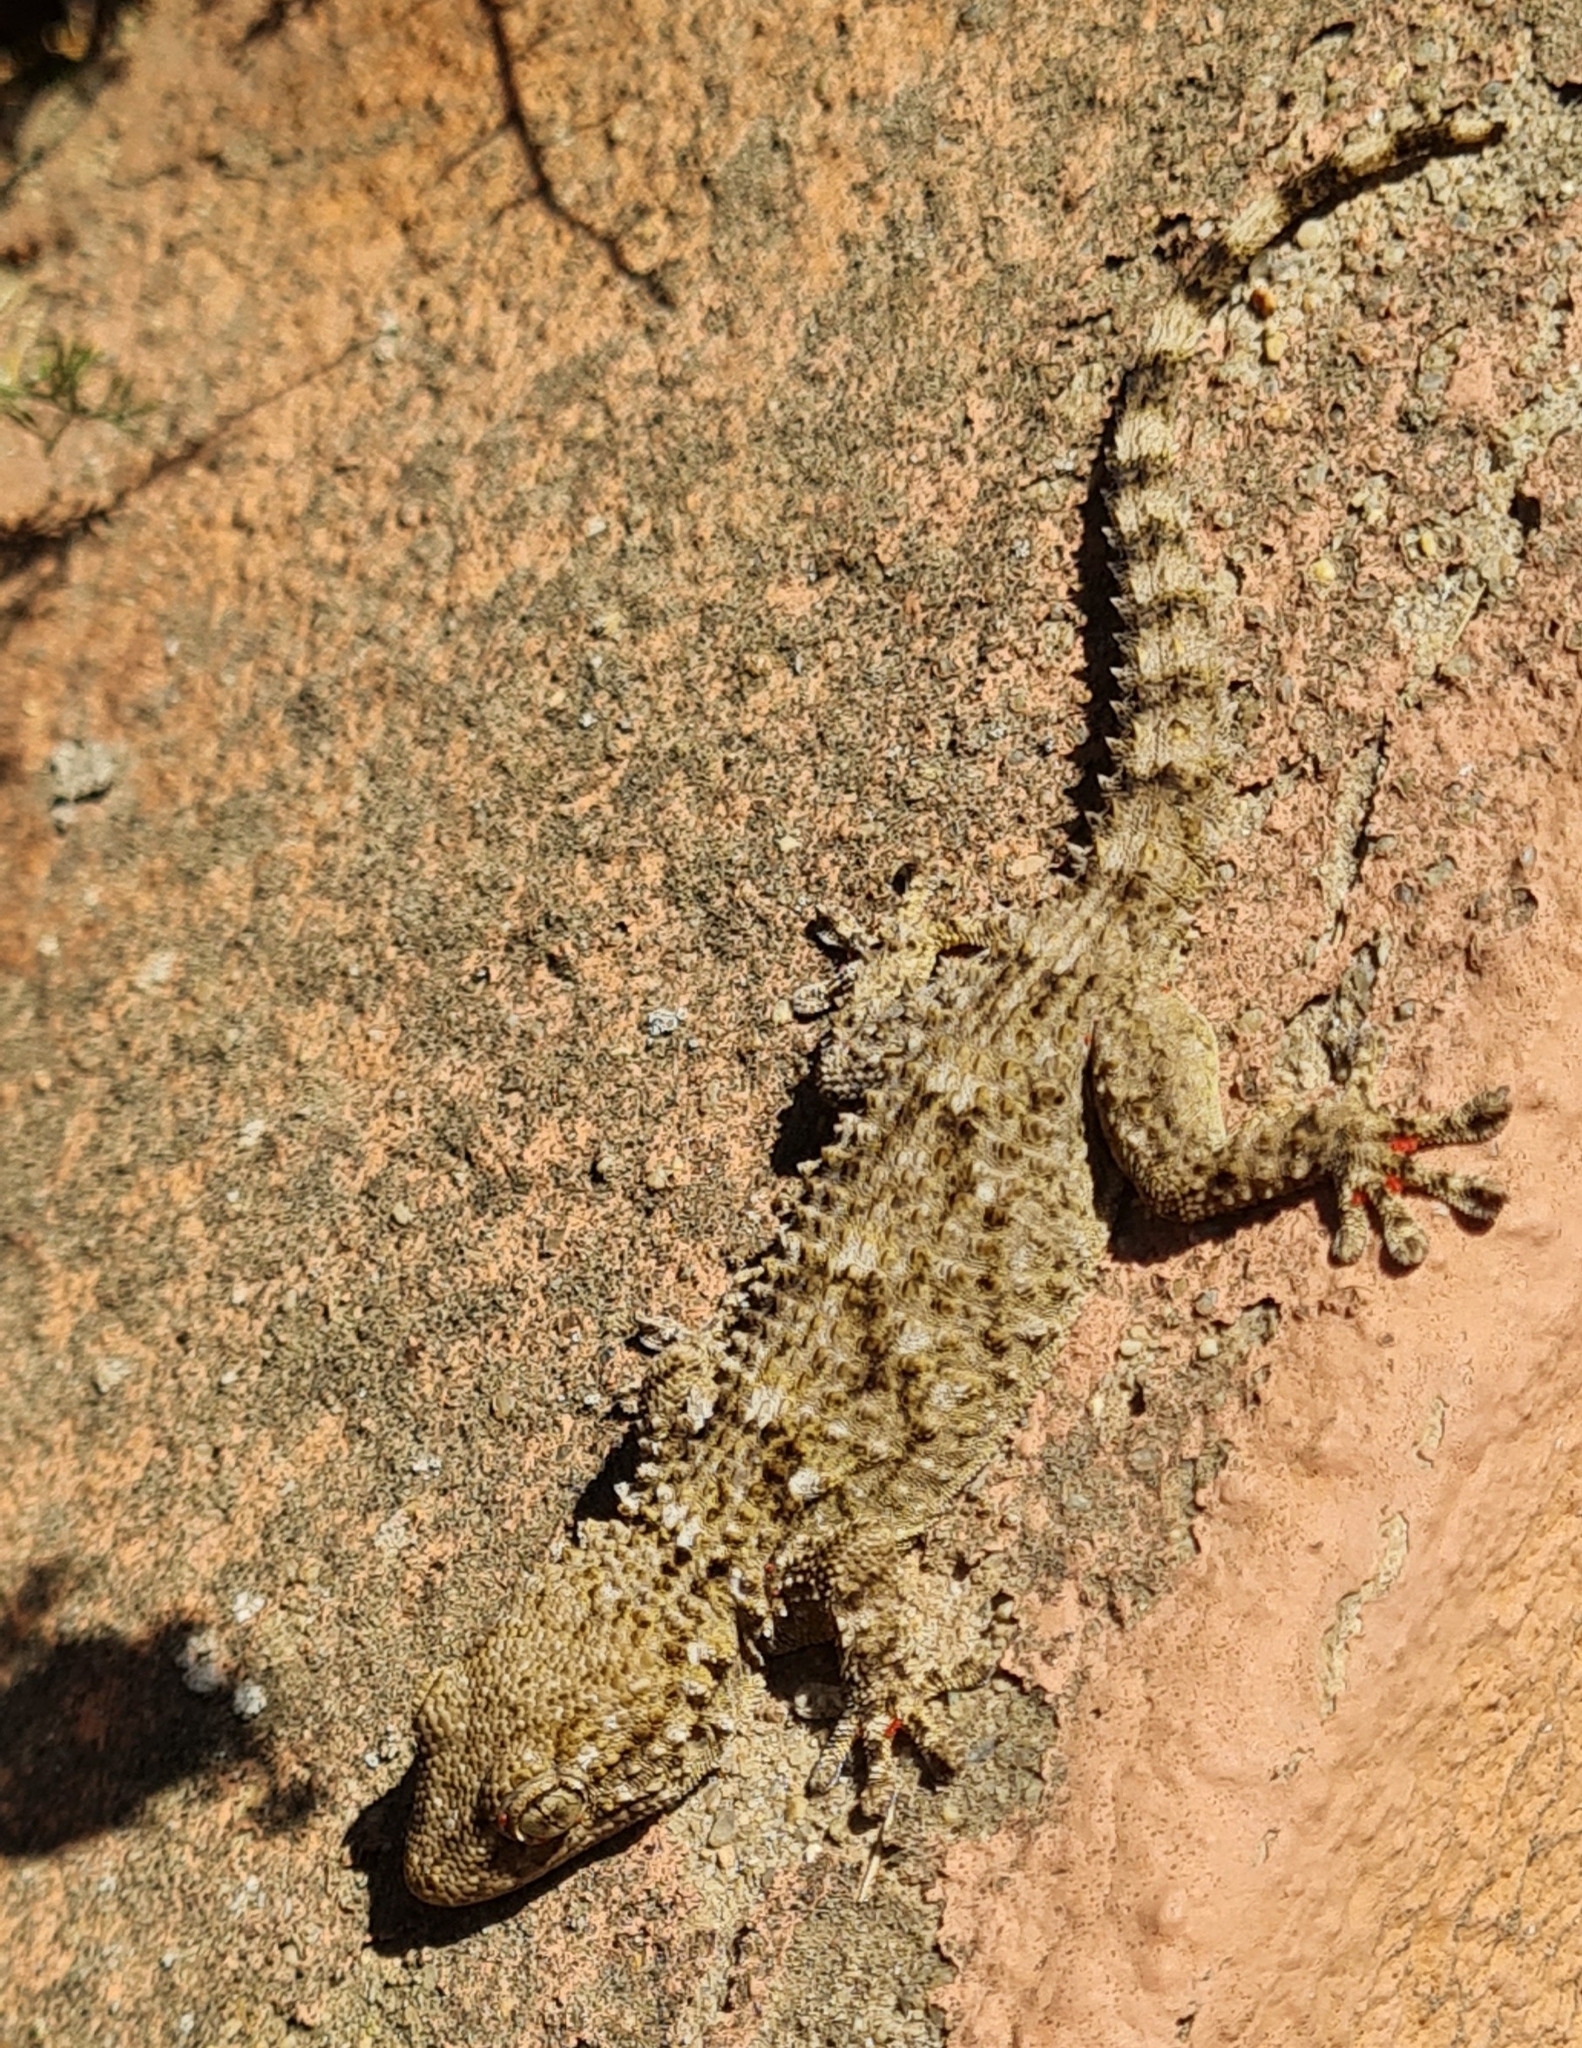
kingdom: Animalia
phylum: Chordata
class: Squamata
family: Phyllodactylidae
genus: Tarentola
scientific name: Tarentola mauritanica
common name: Moorish gecko
